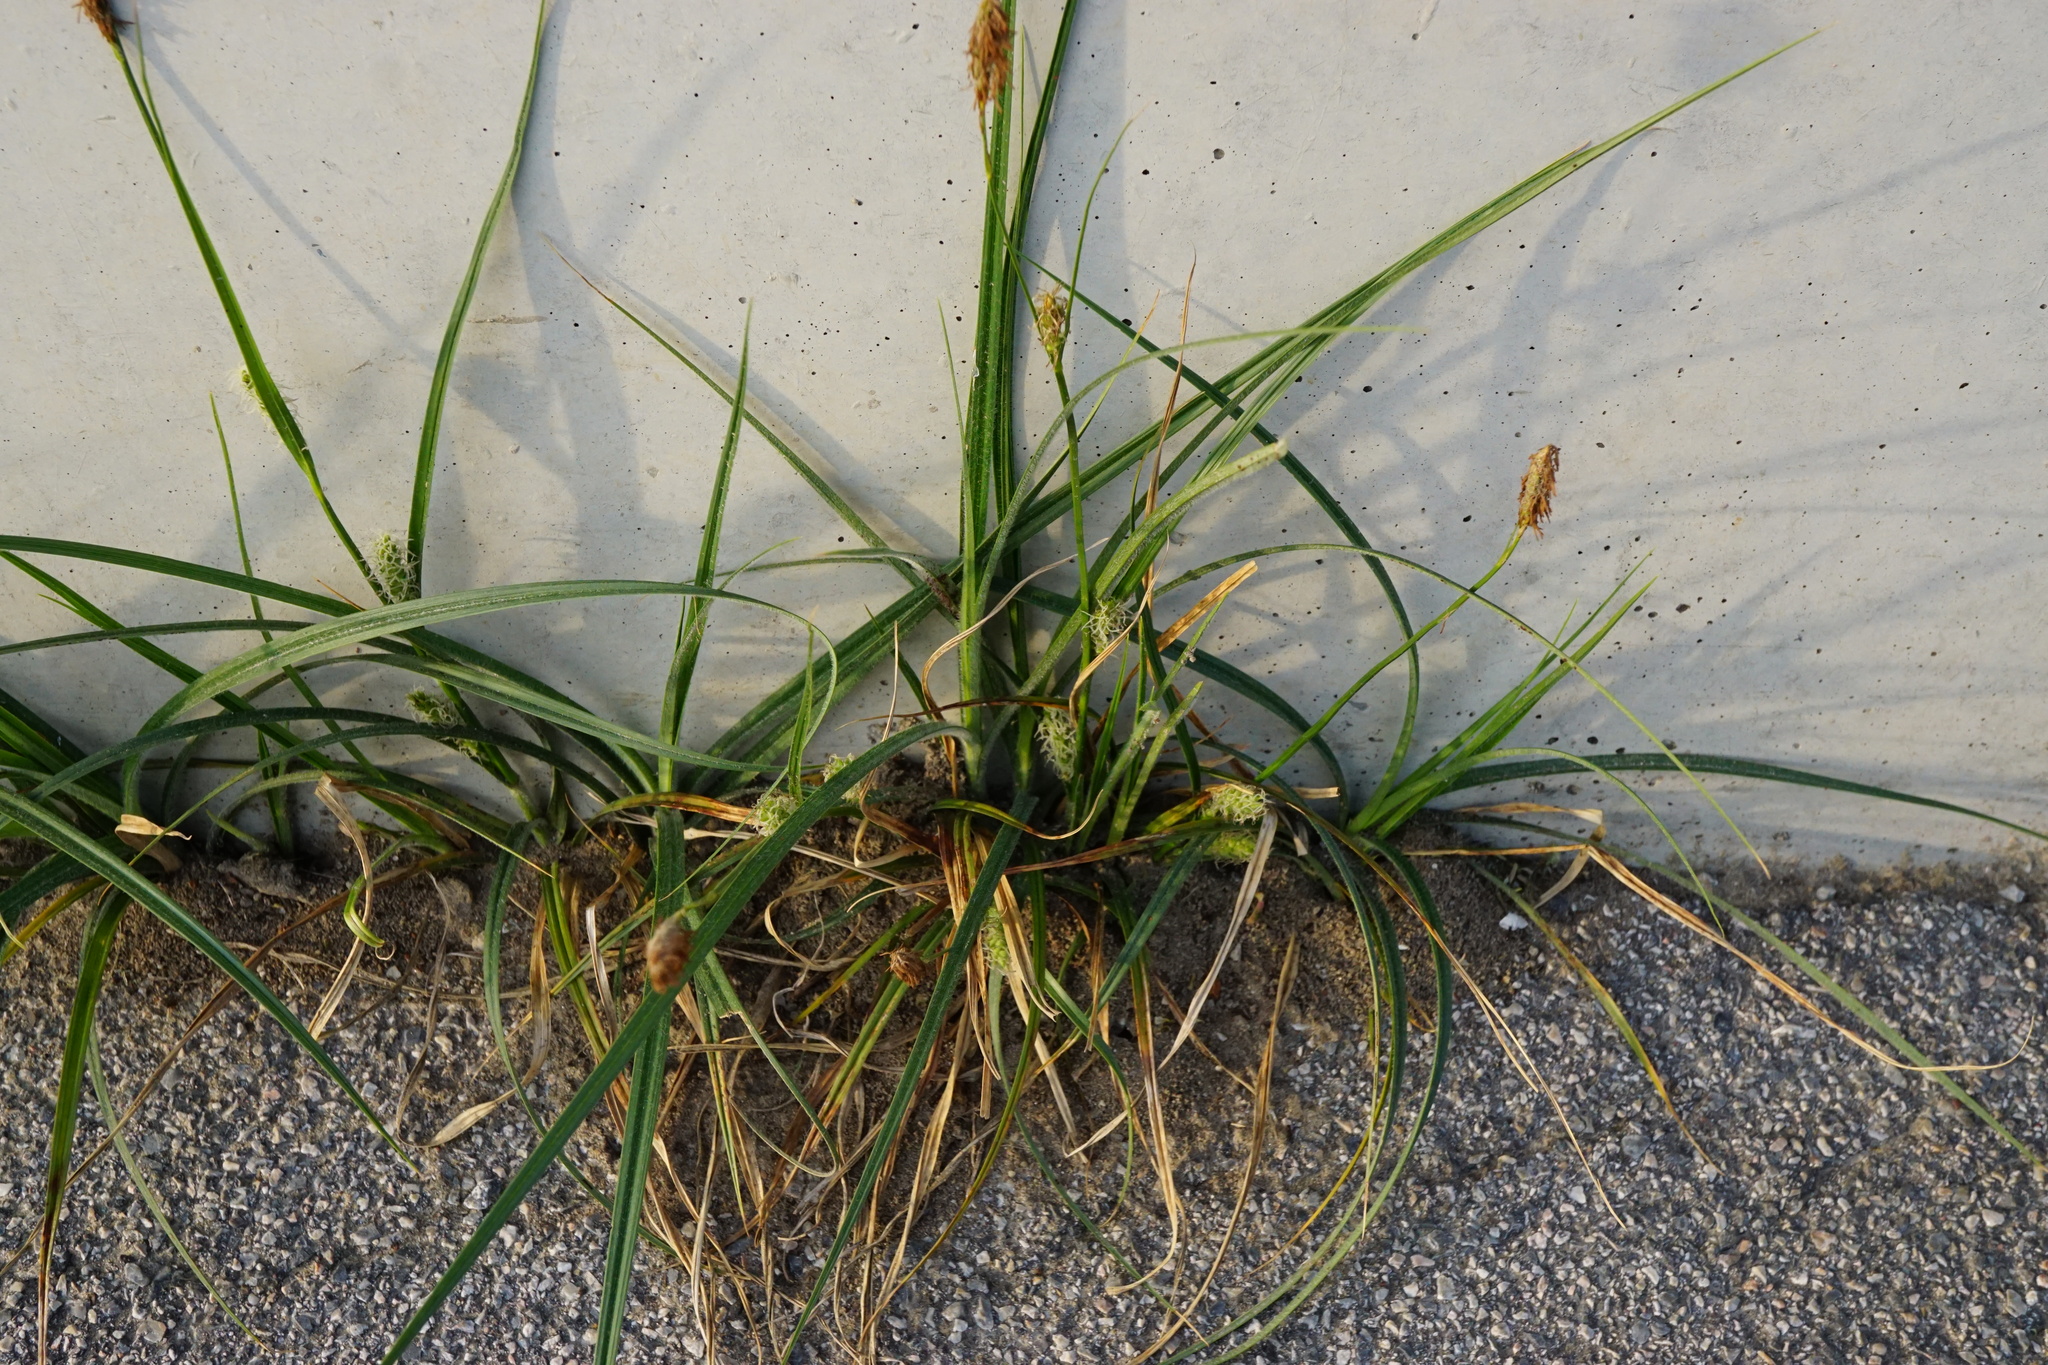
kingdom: Plantae
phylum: Tracheophyta
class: Liliopsida
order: Poales
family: Cyperaceae
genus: Carex
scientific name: Carex hirta
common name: Hairy sedge
